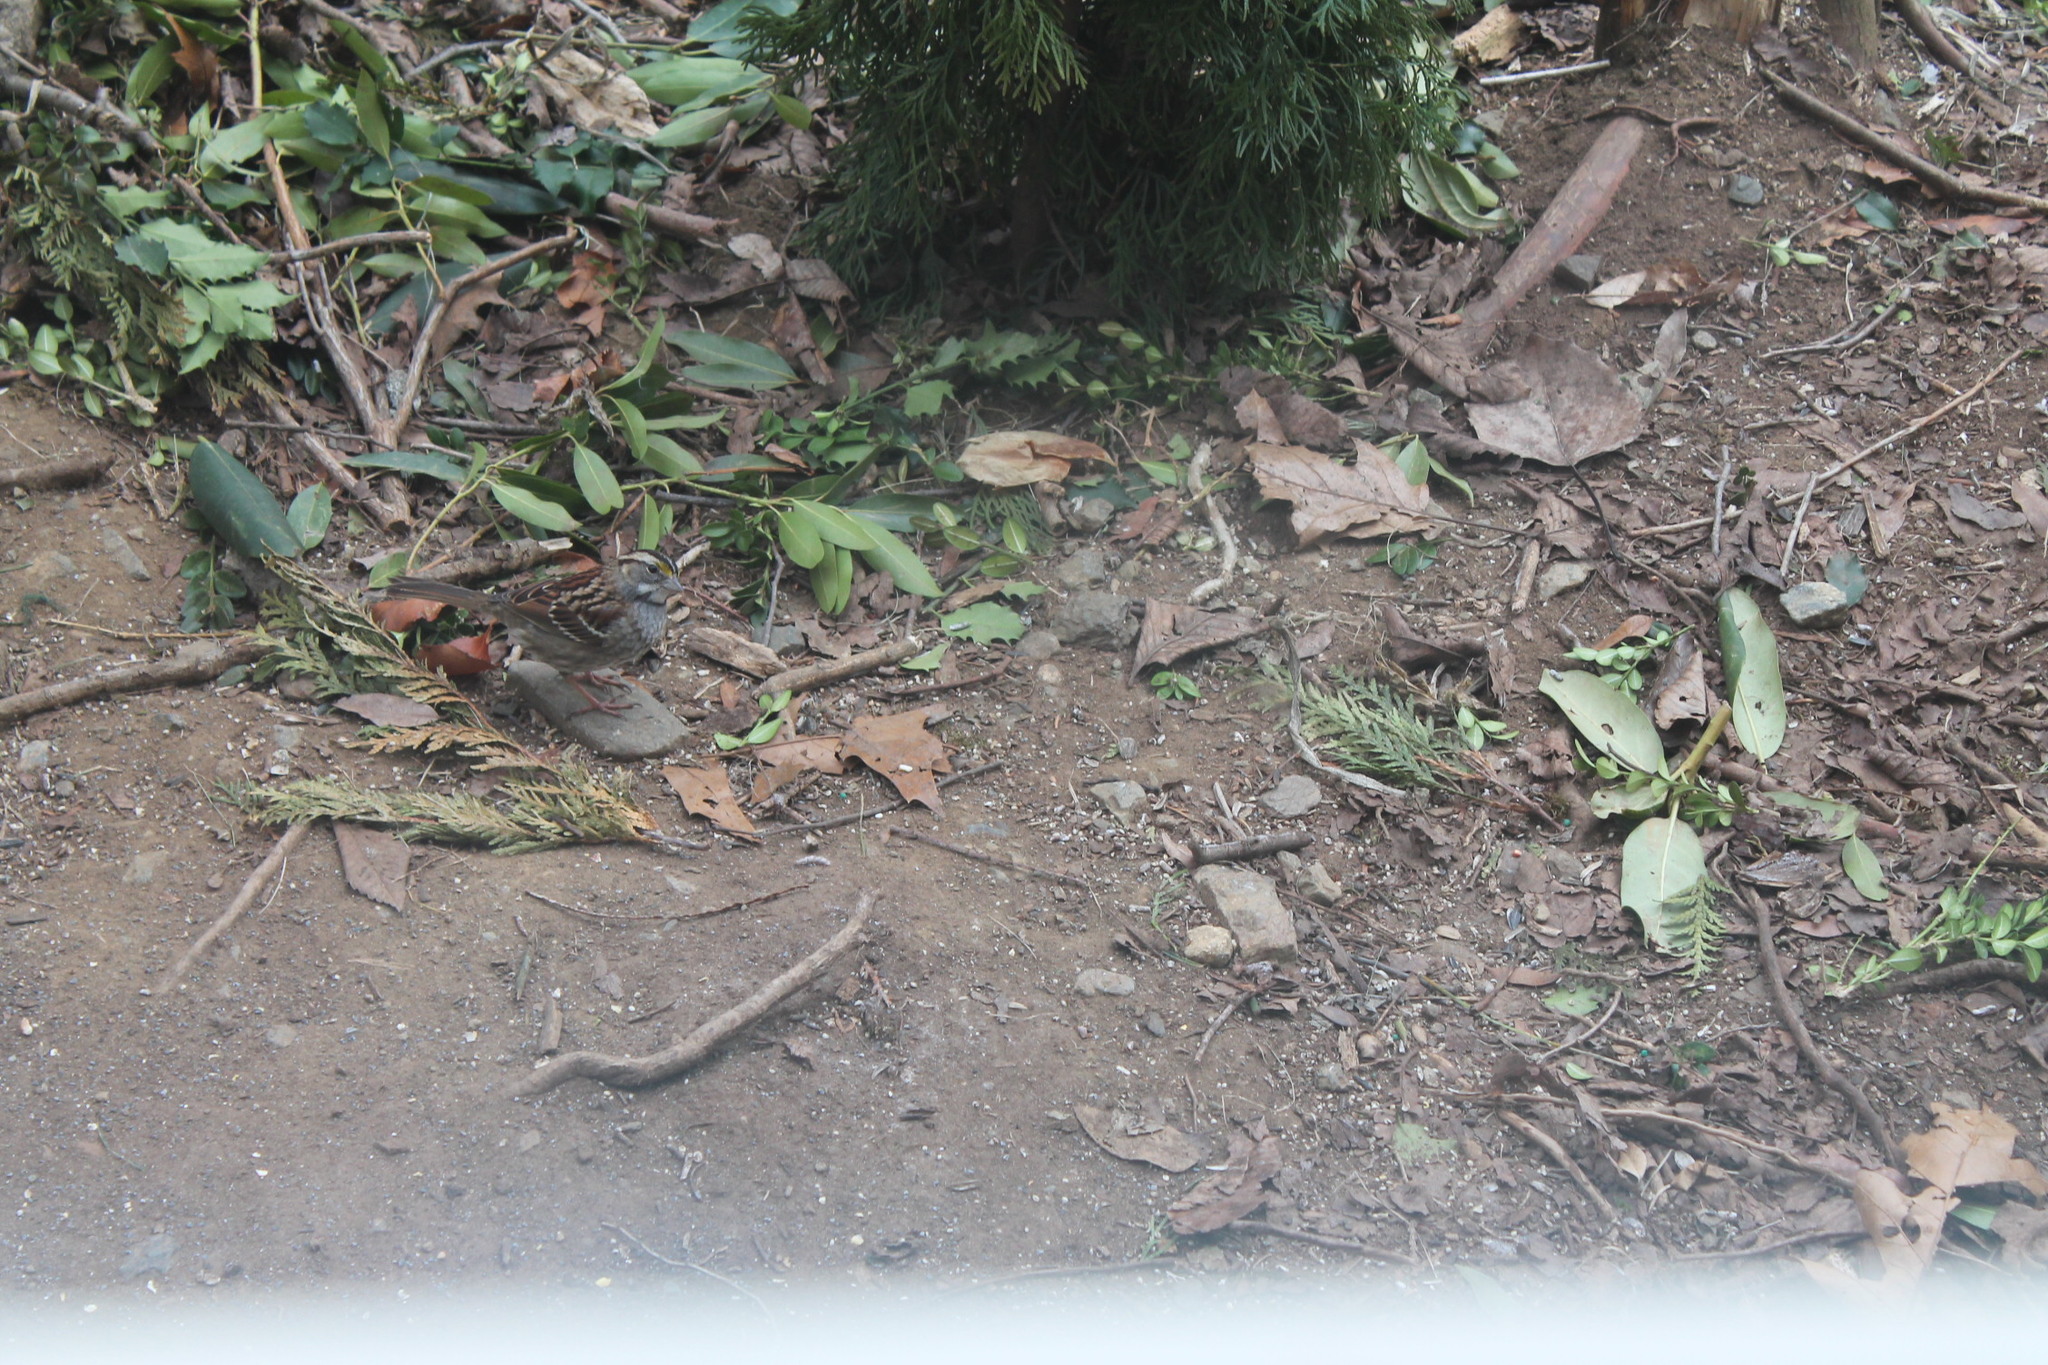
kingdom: Animalia
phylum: Chordata
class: Aves
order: Passeriformes
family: Passerellidae
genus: Zonotrichia
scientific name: Zonotrichia albicollis
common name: White-throated sparrow
